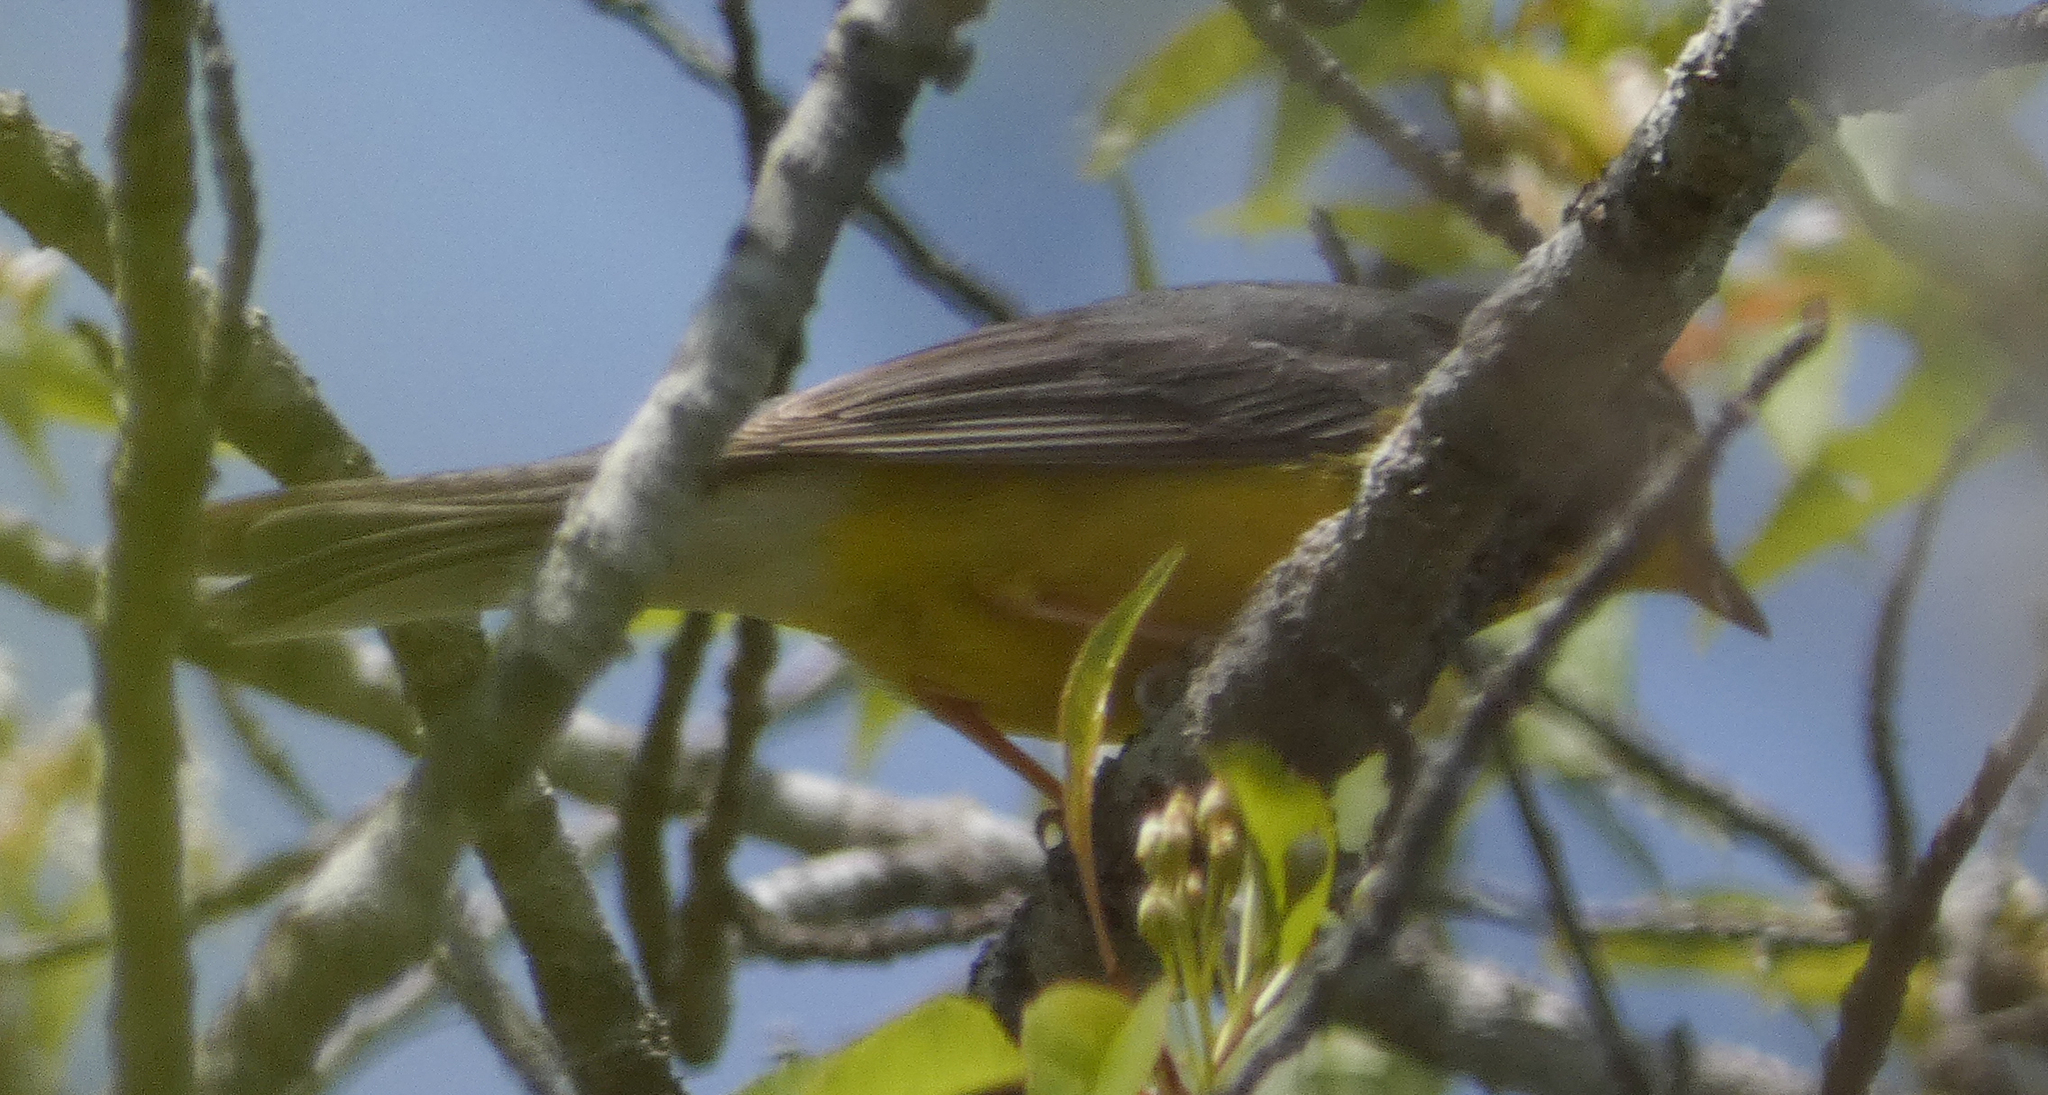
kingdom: Animalia
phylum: Chordata
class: Aves
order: Passeriformes
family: Parulidae
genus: Cardellina
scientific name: Cardellina canadensis
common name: Canada warbler
